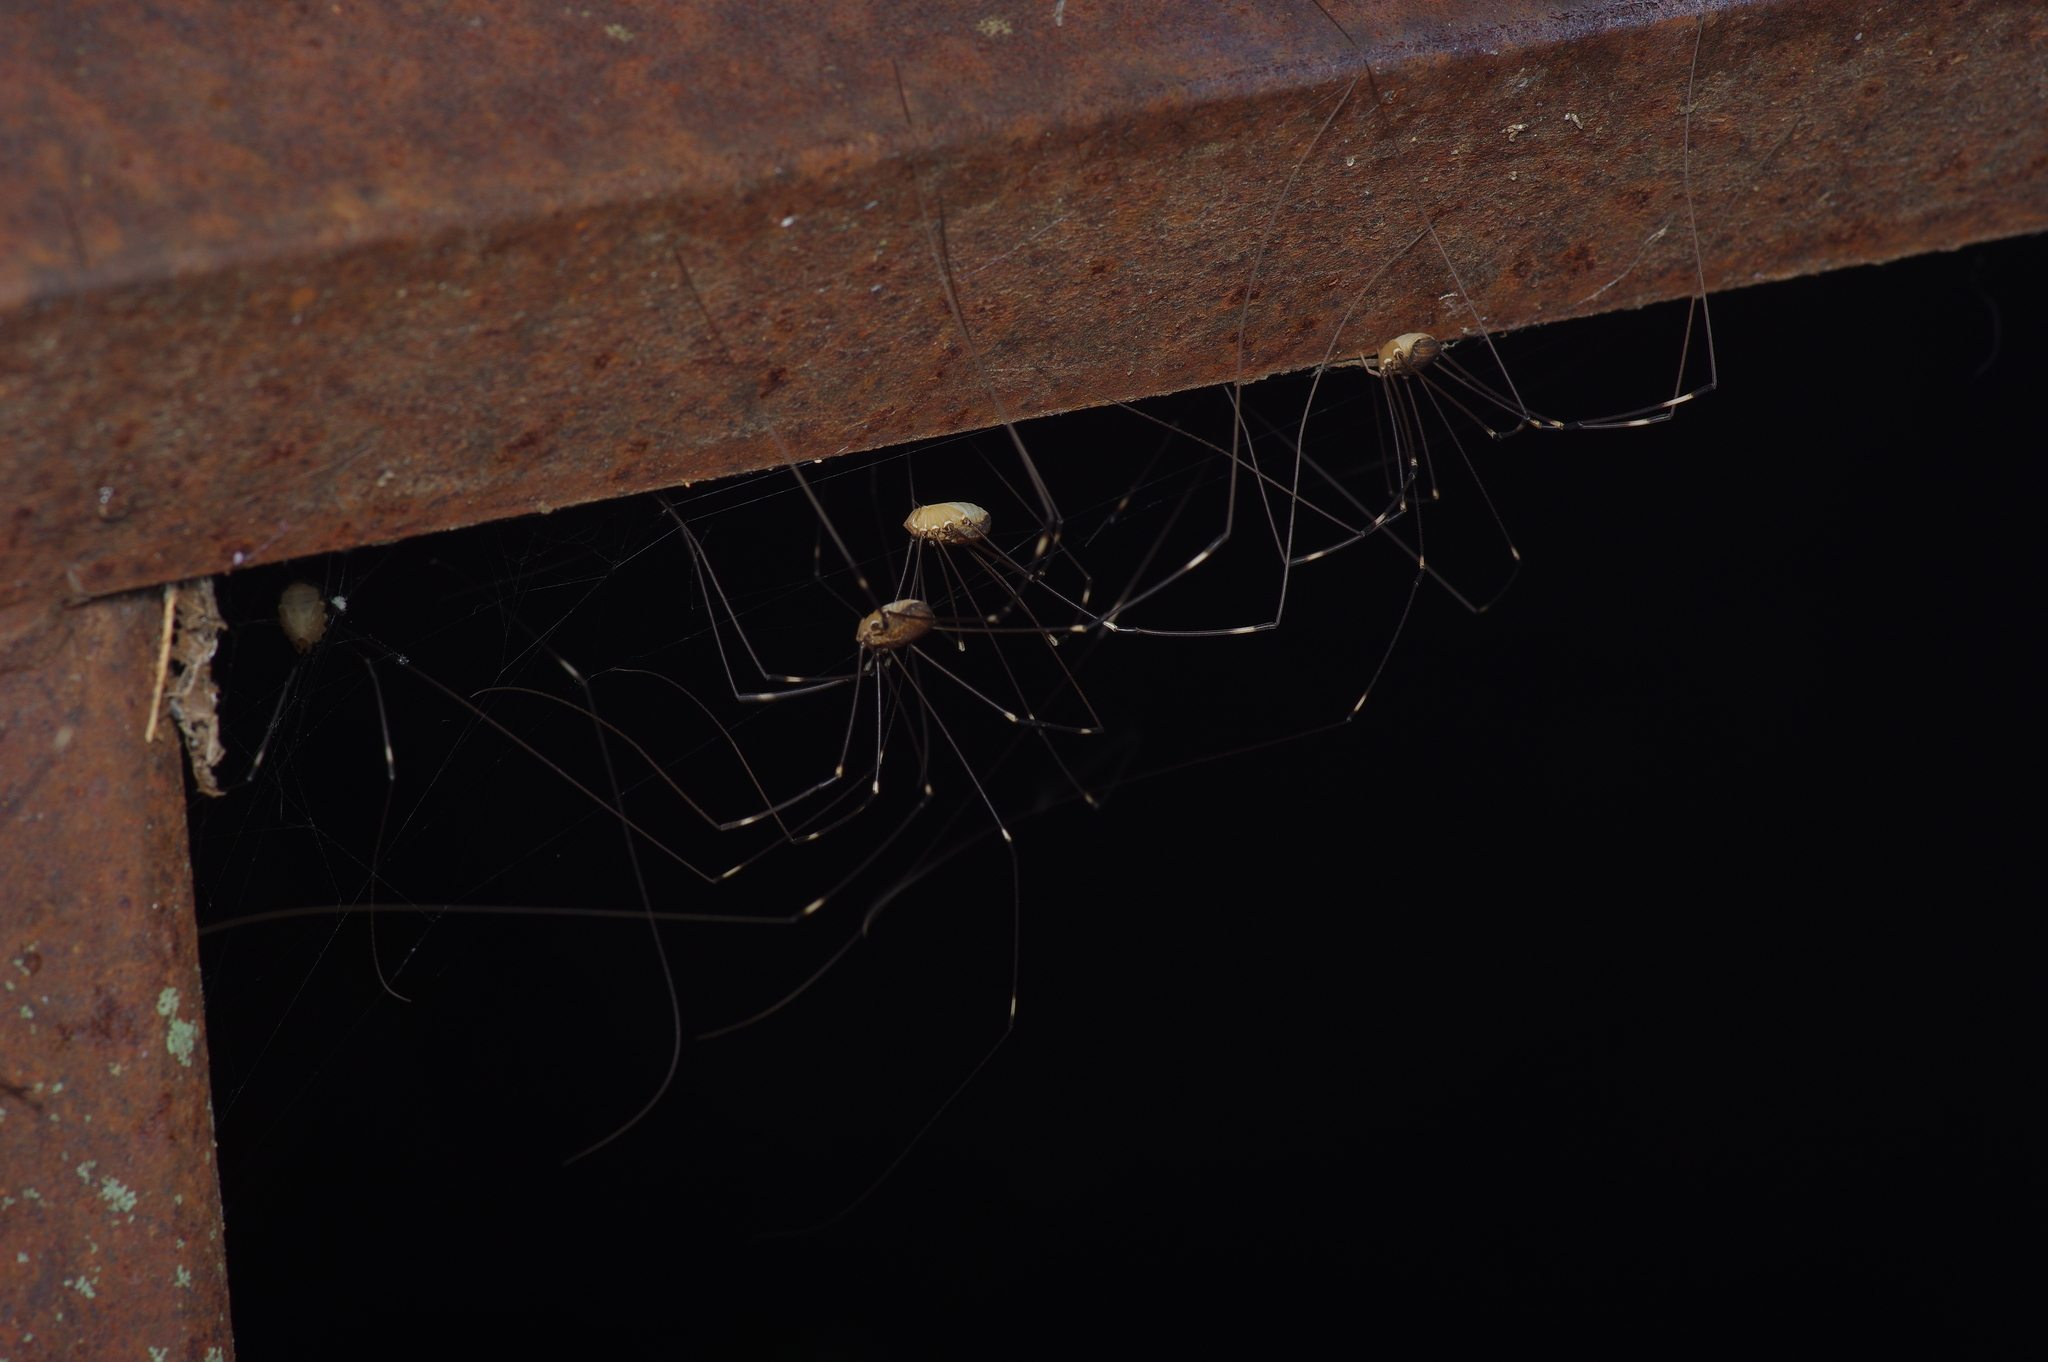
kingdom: Animalia
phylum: Arthropoda
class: Arachnida
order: Opiliones
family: Sclerosomatidae
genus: Leiobunum
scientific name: Leiobunum townsendi
